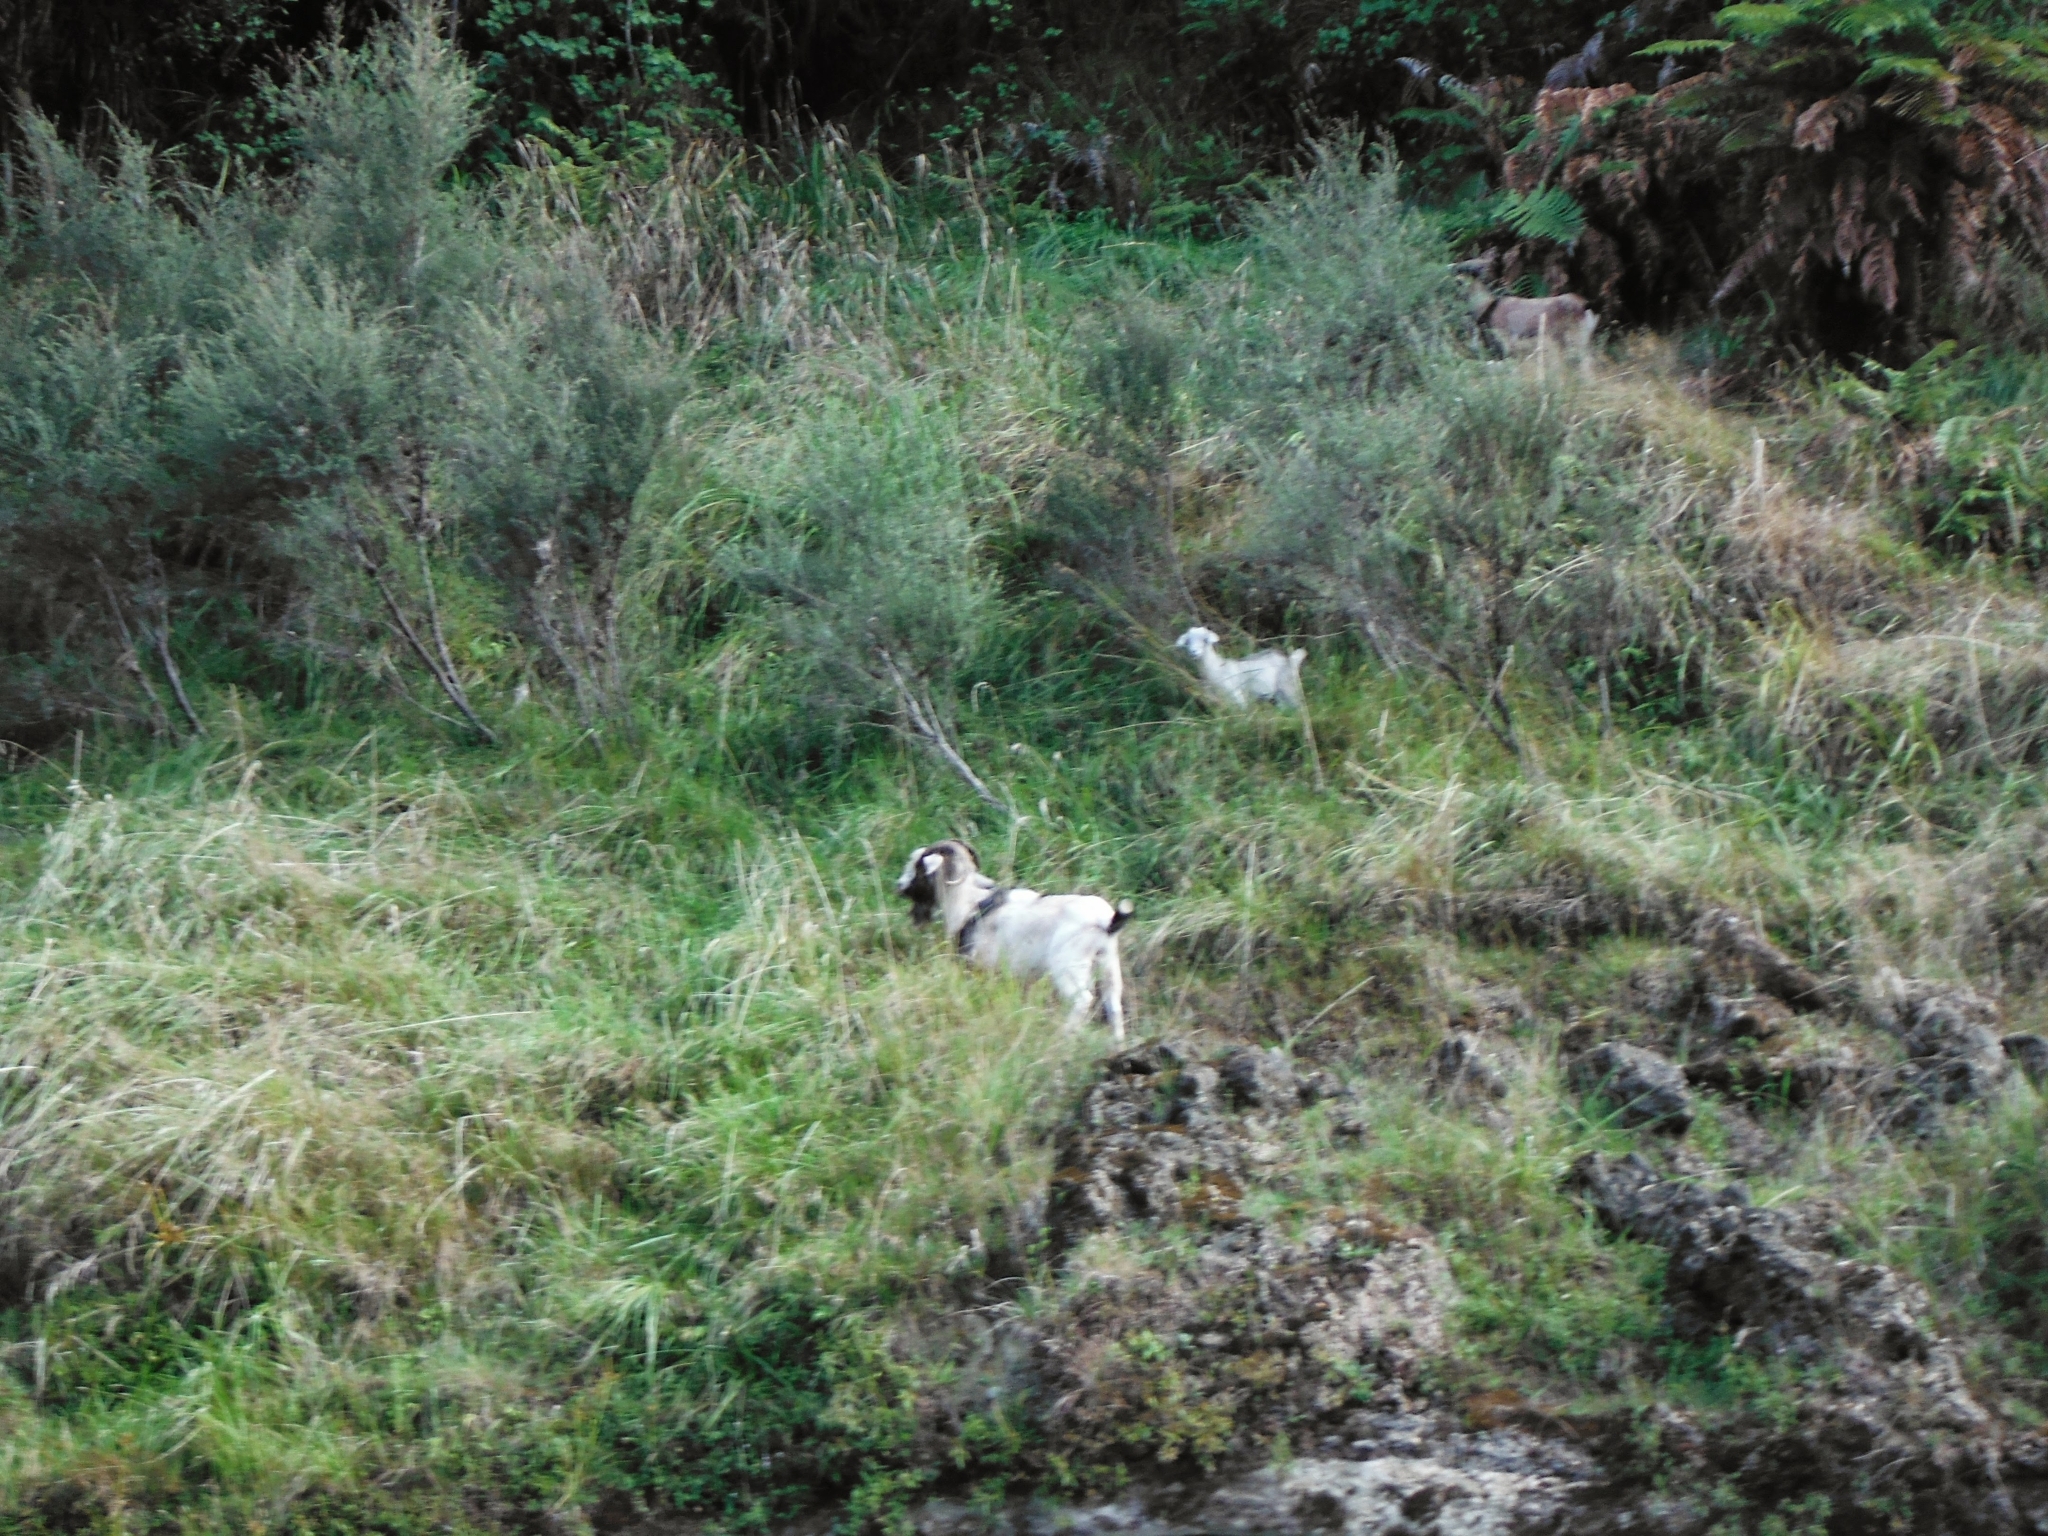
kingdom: Animalia
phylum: Chordata
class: Mammalia
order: Artiodactyla
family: Bovidae
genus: Capra
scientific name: Capra hircus
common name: Domestic goat
